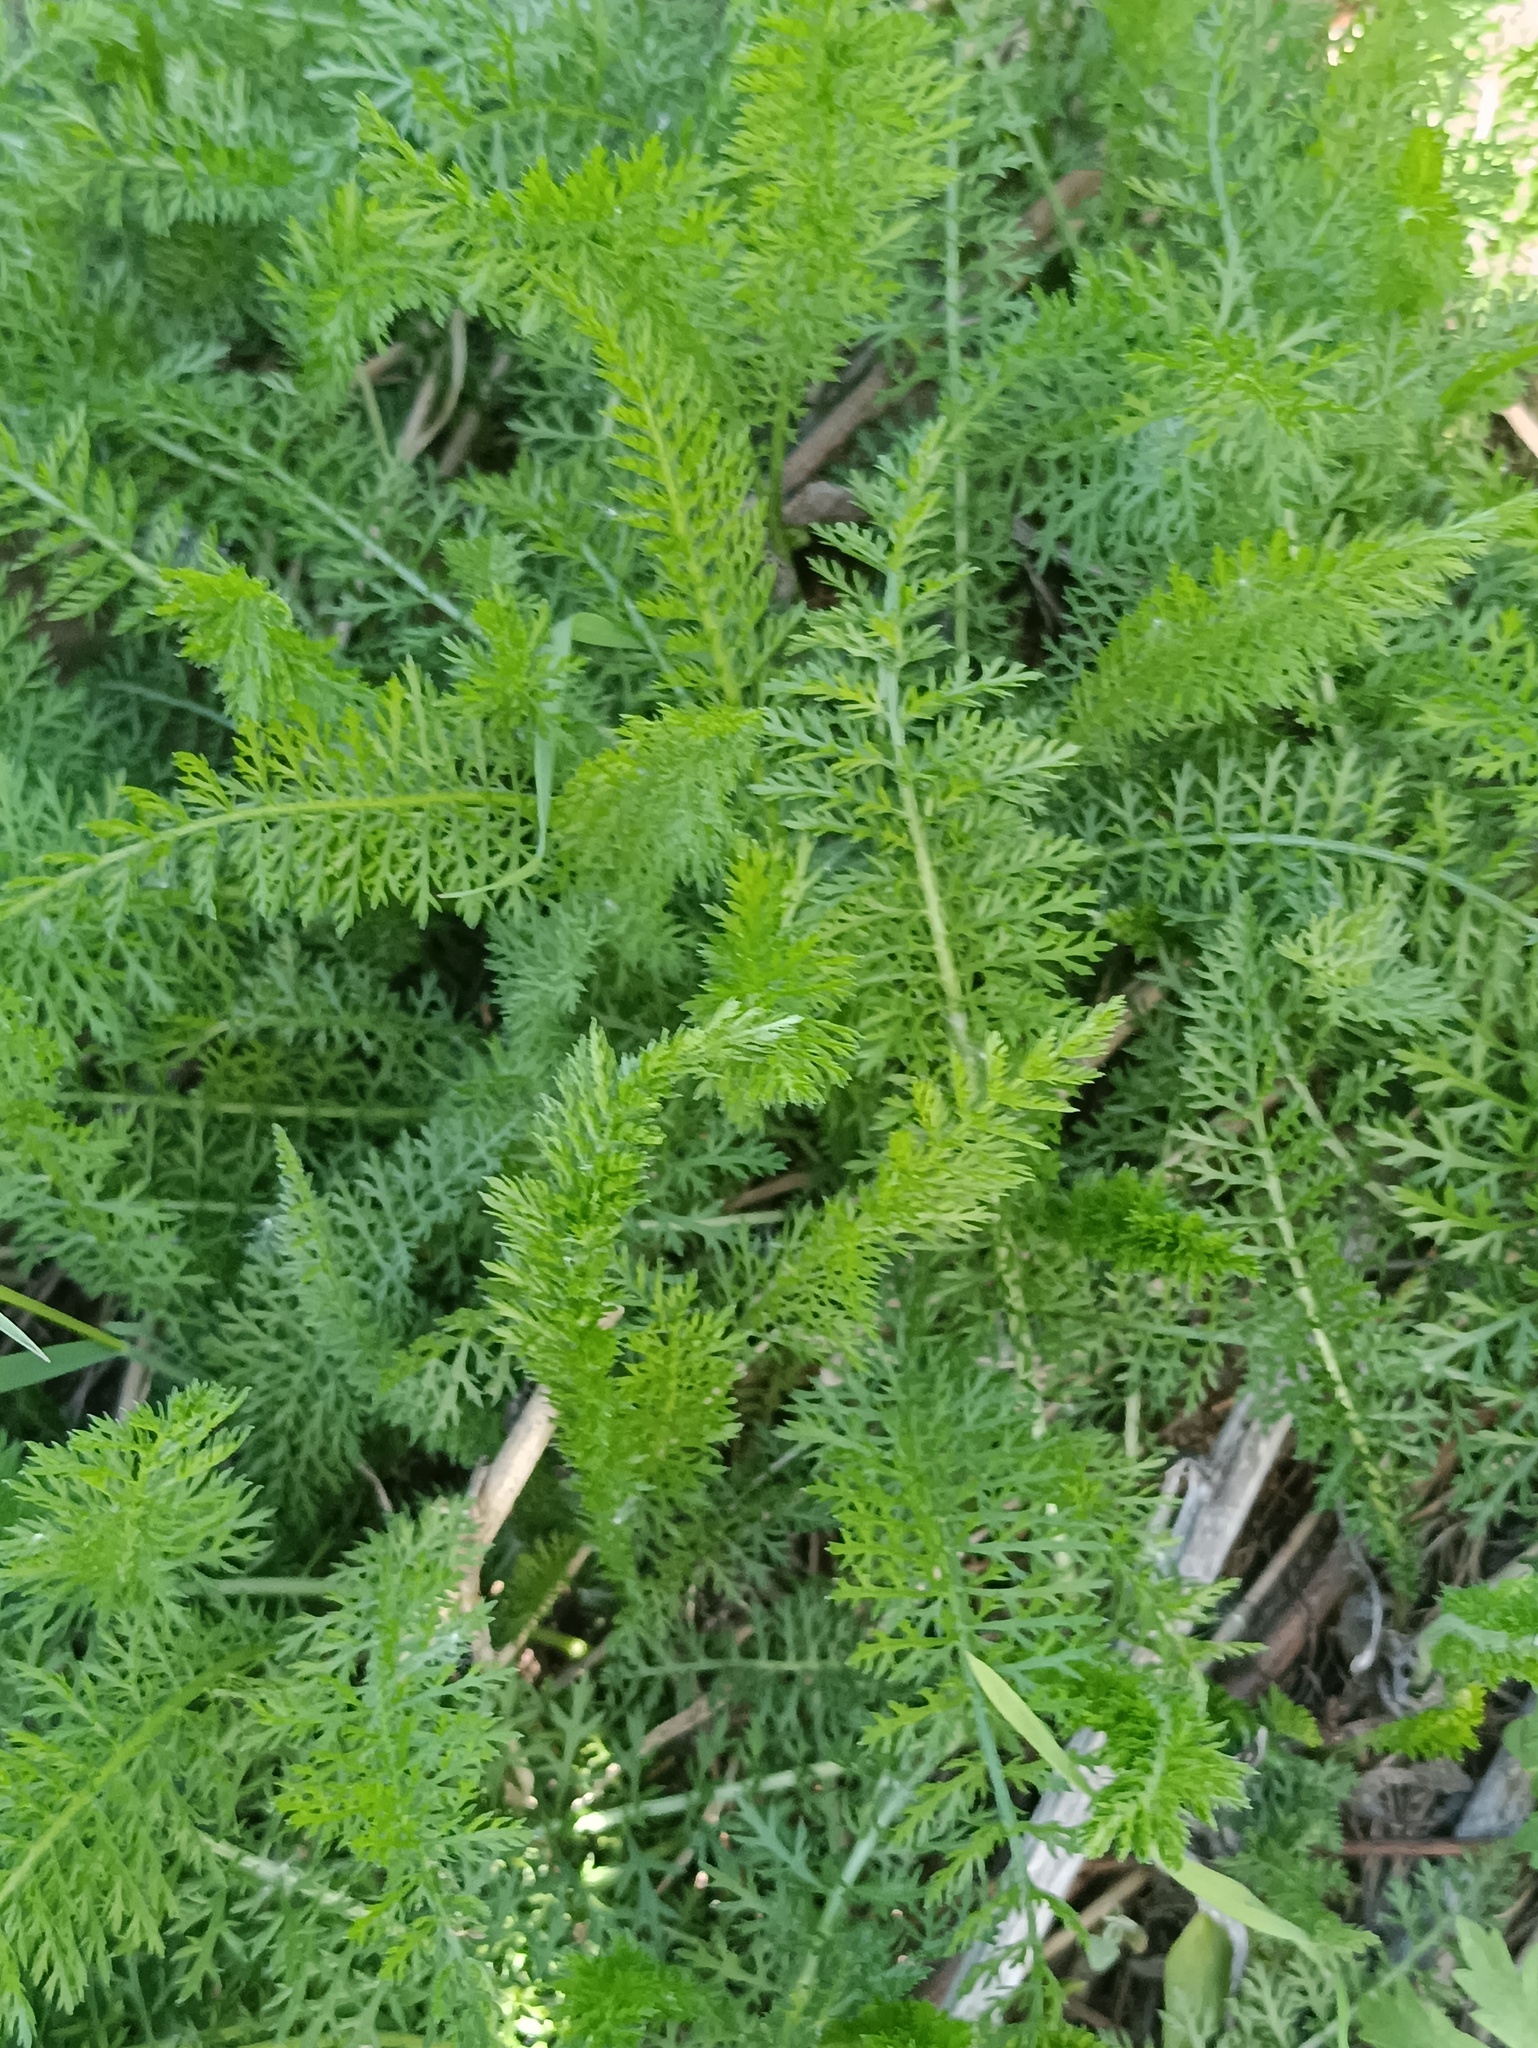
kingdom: Plantae
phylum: Tracheophyta
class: Magnoliopsida
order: Asterales
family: Asteraceae
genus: Achillea
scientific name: Achillea millefolium
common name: Yarrow
